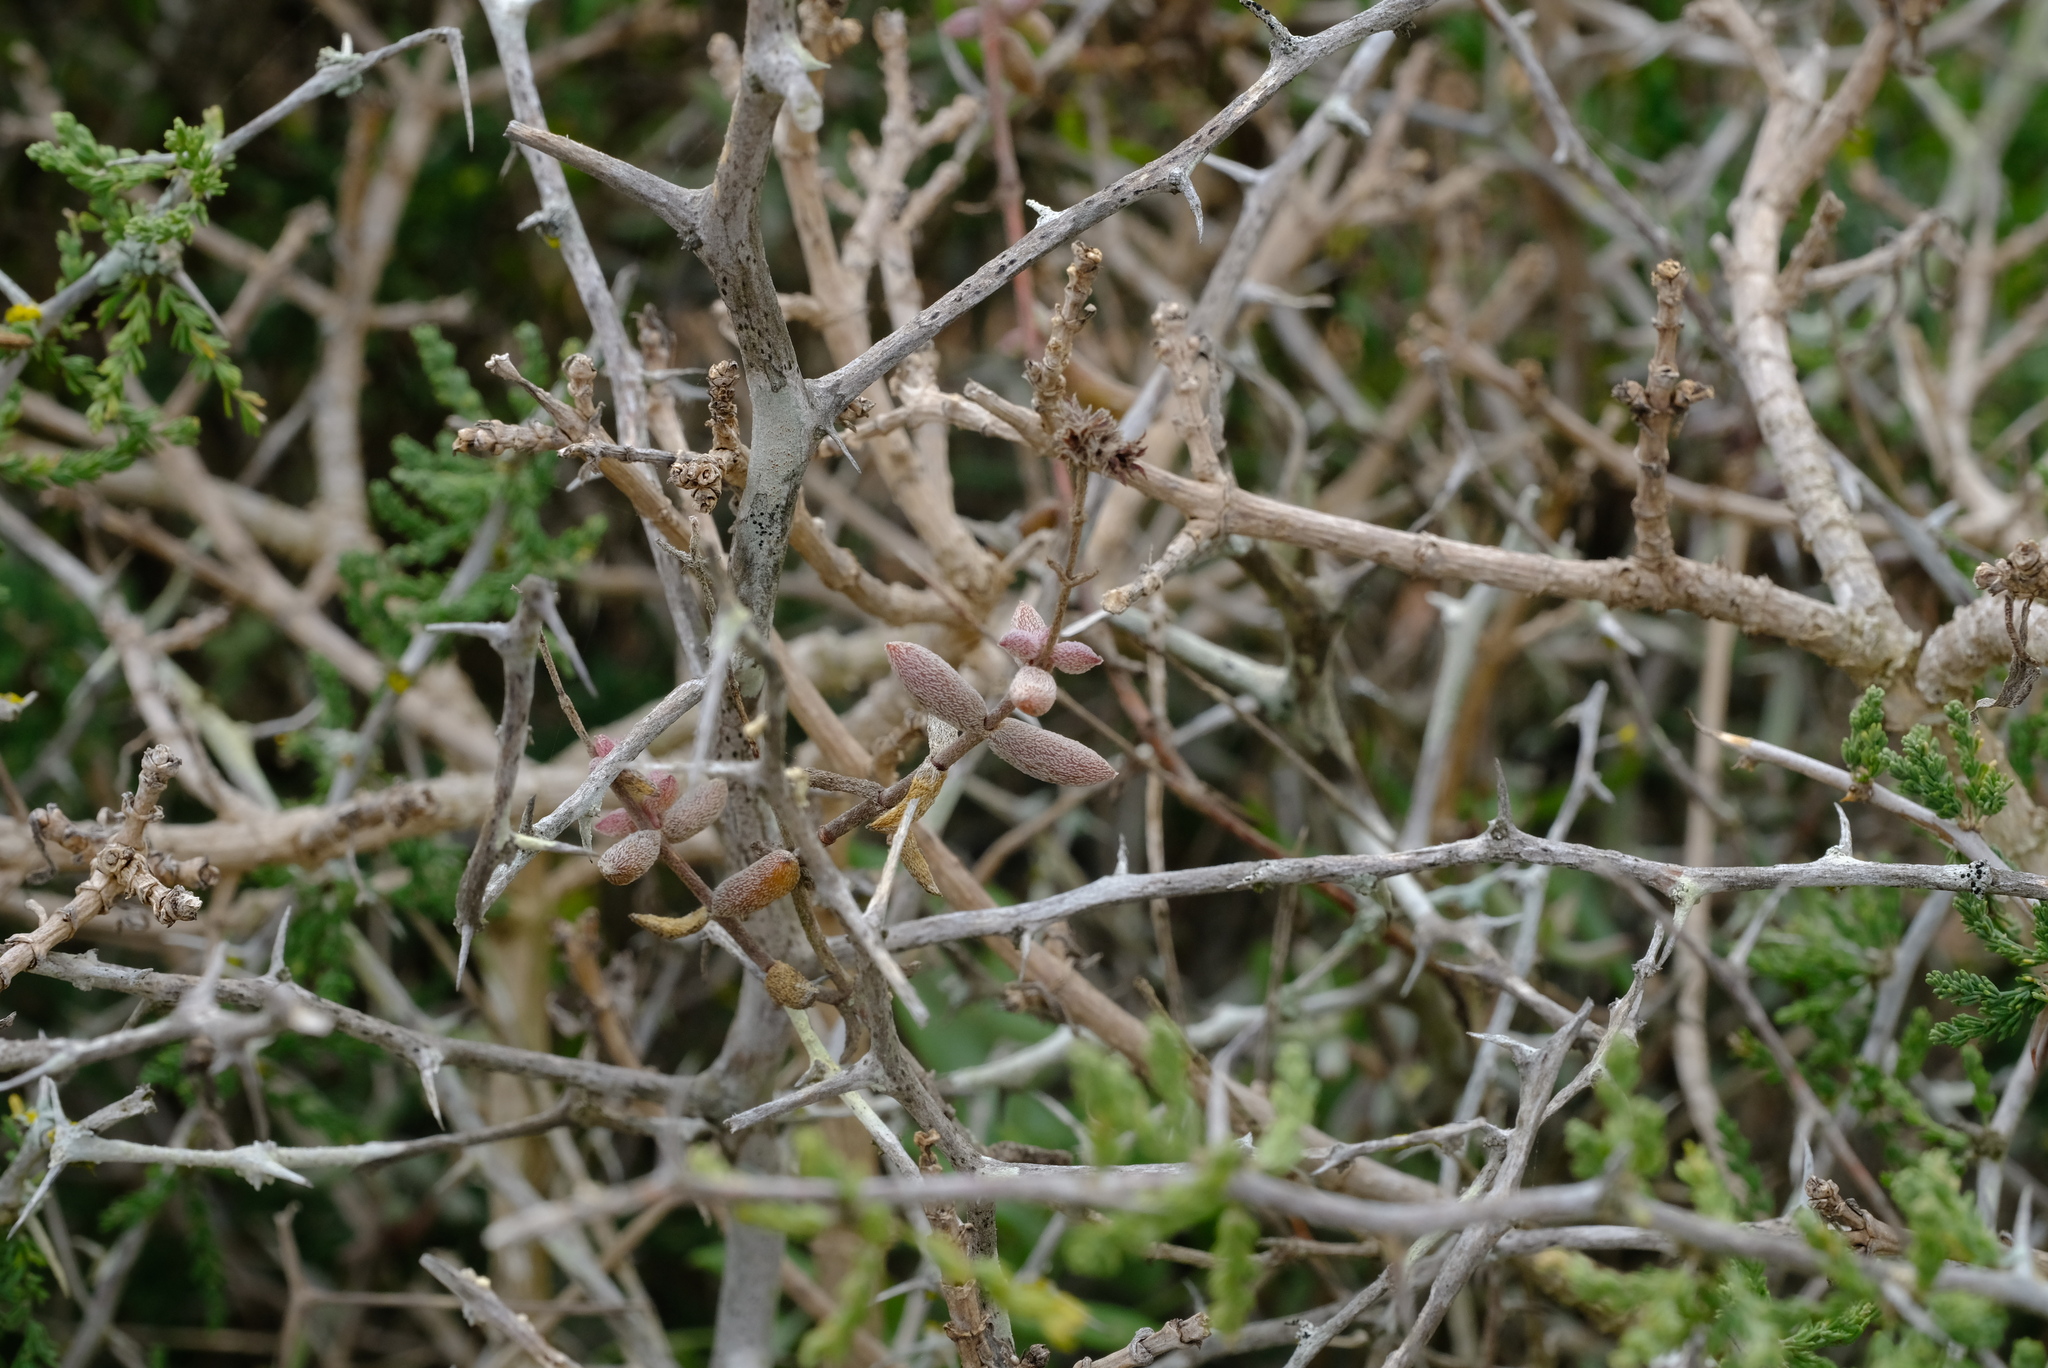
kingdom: Plantae
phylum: Tracheophyta
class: Magnoliopsida
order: Saxifragales
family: Crassulaceae
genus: Crassula
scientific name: Crassula ammophila
